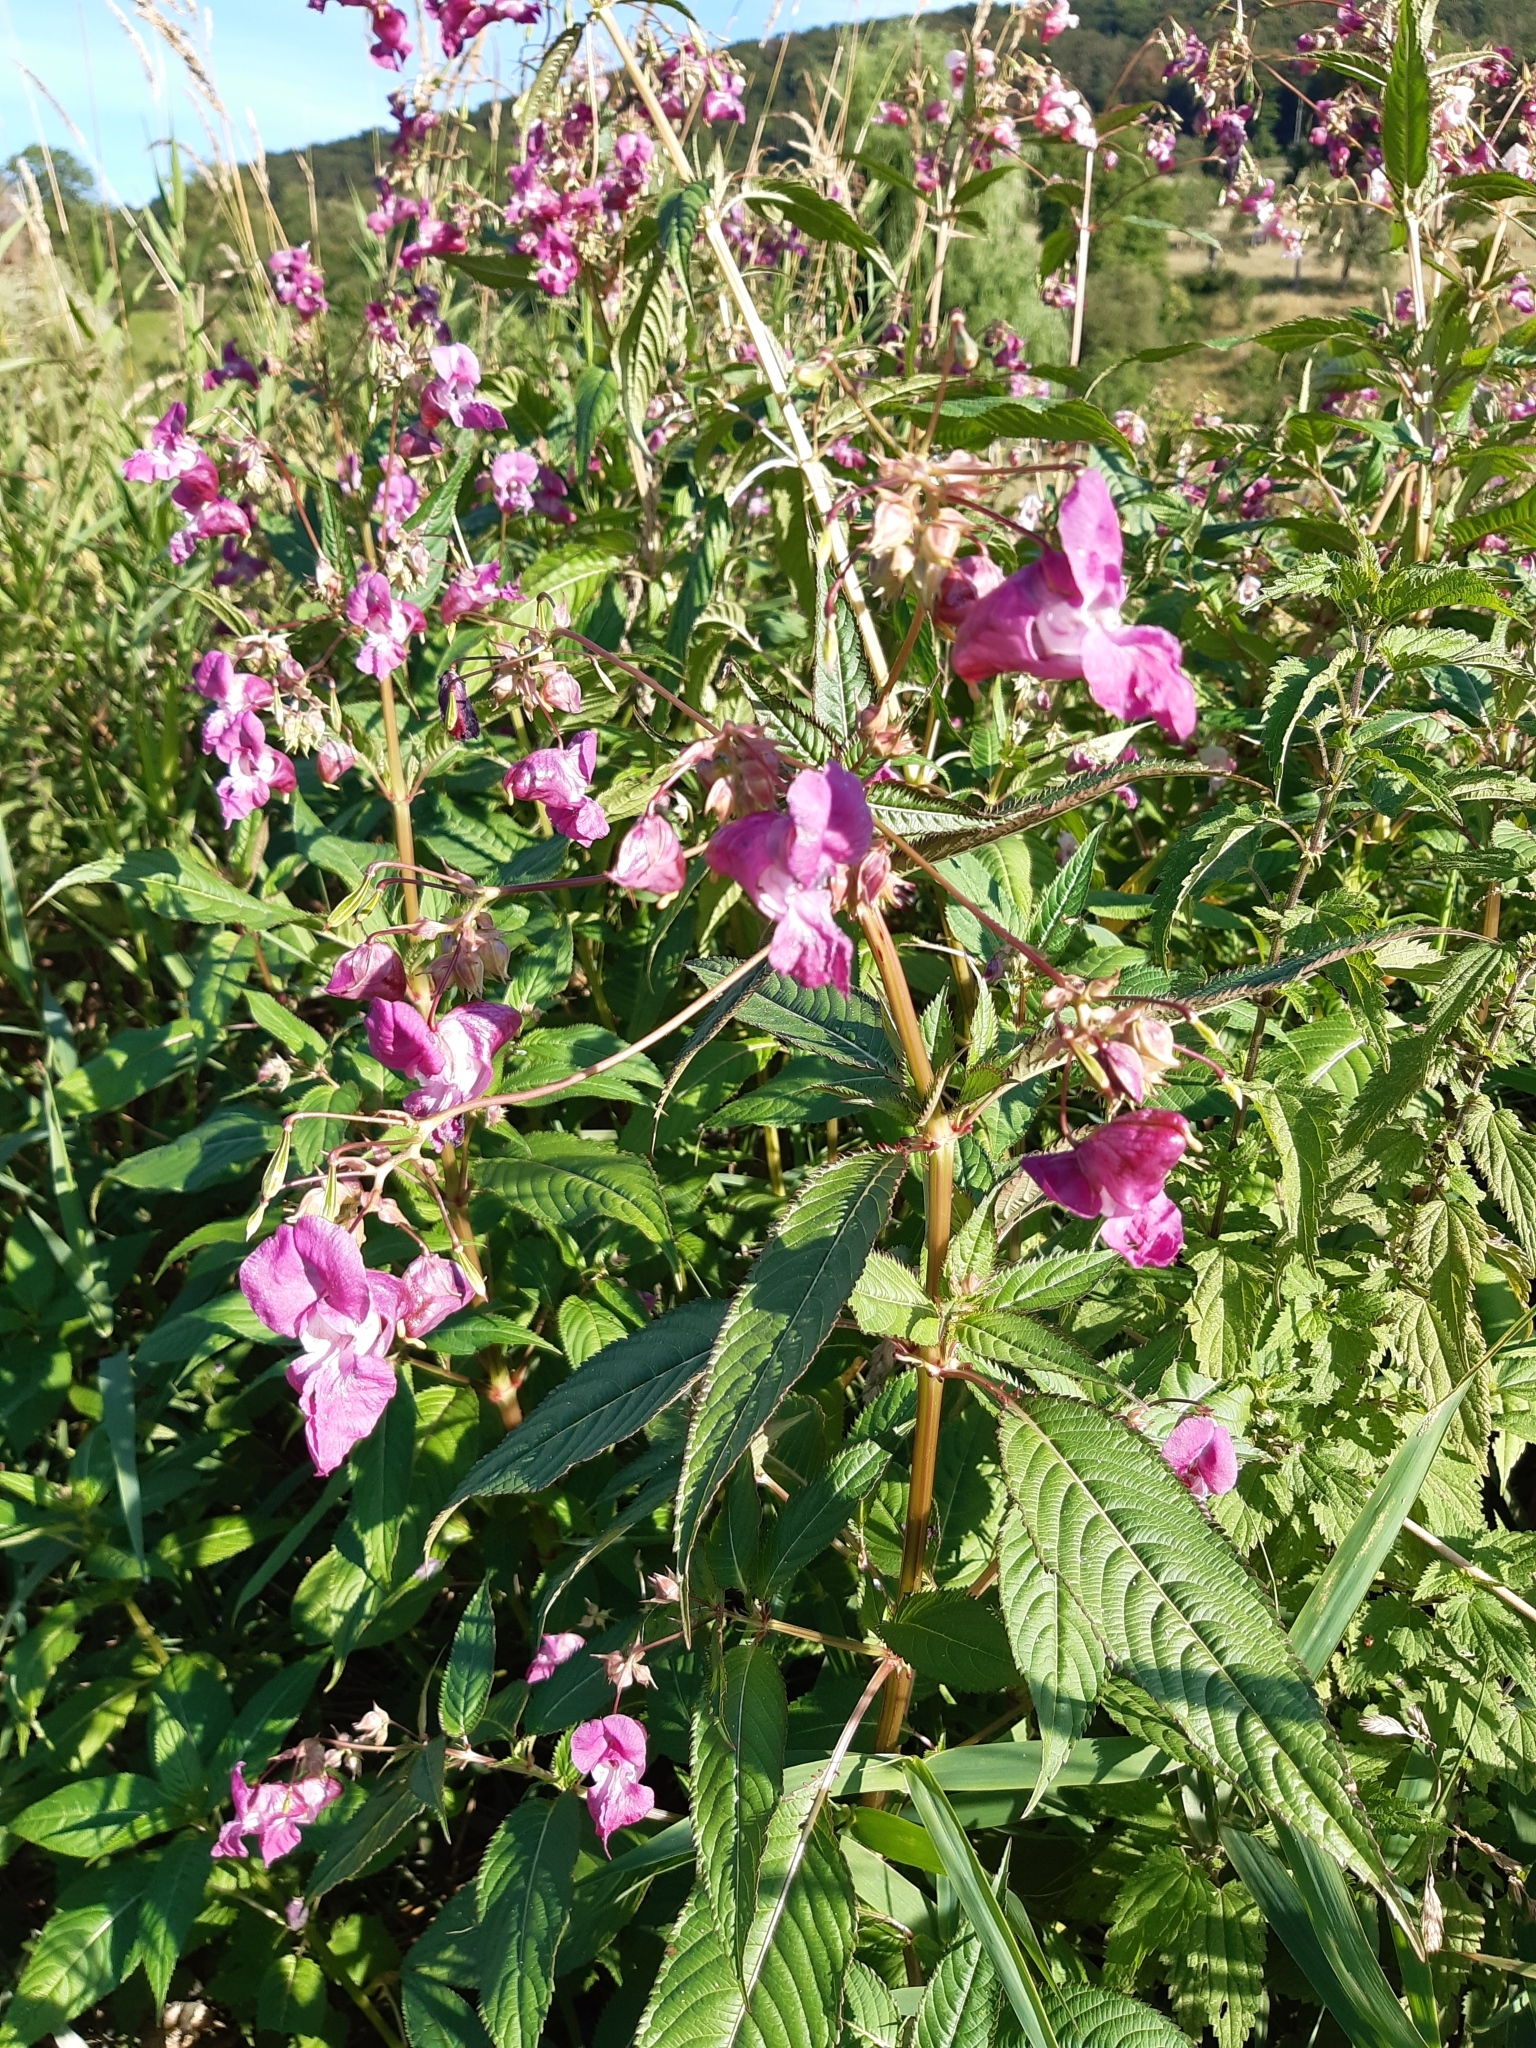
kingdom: Plantae
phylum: Tracheophyta
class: Magnoliopsida
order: Ericales
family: Balsaminaceae
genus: Impatiens
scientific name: Impatiens glandulifera
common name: Himalayan balsam
